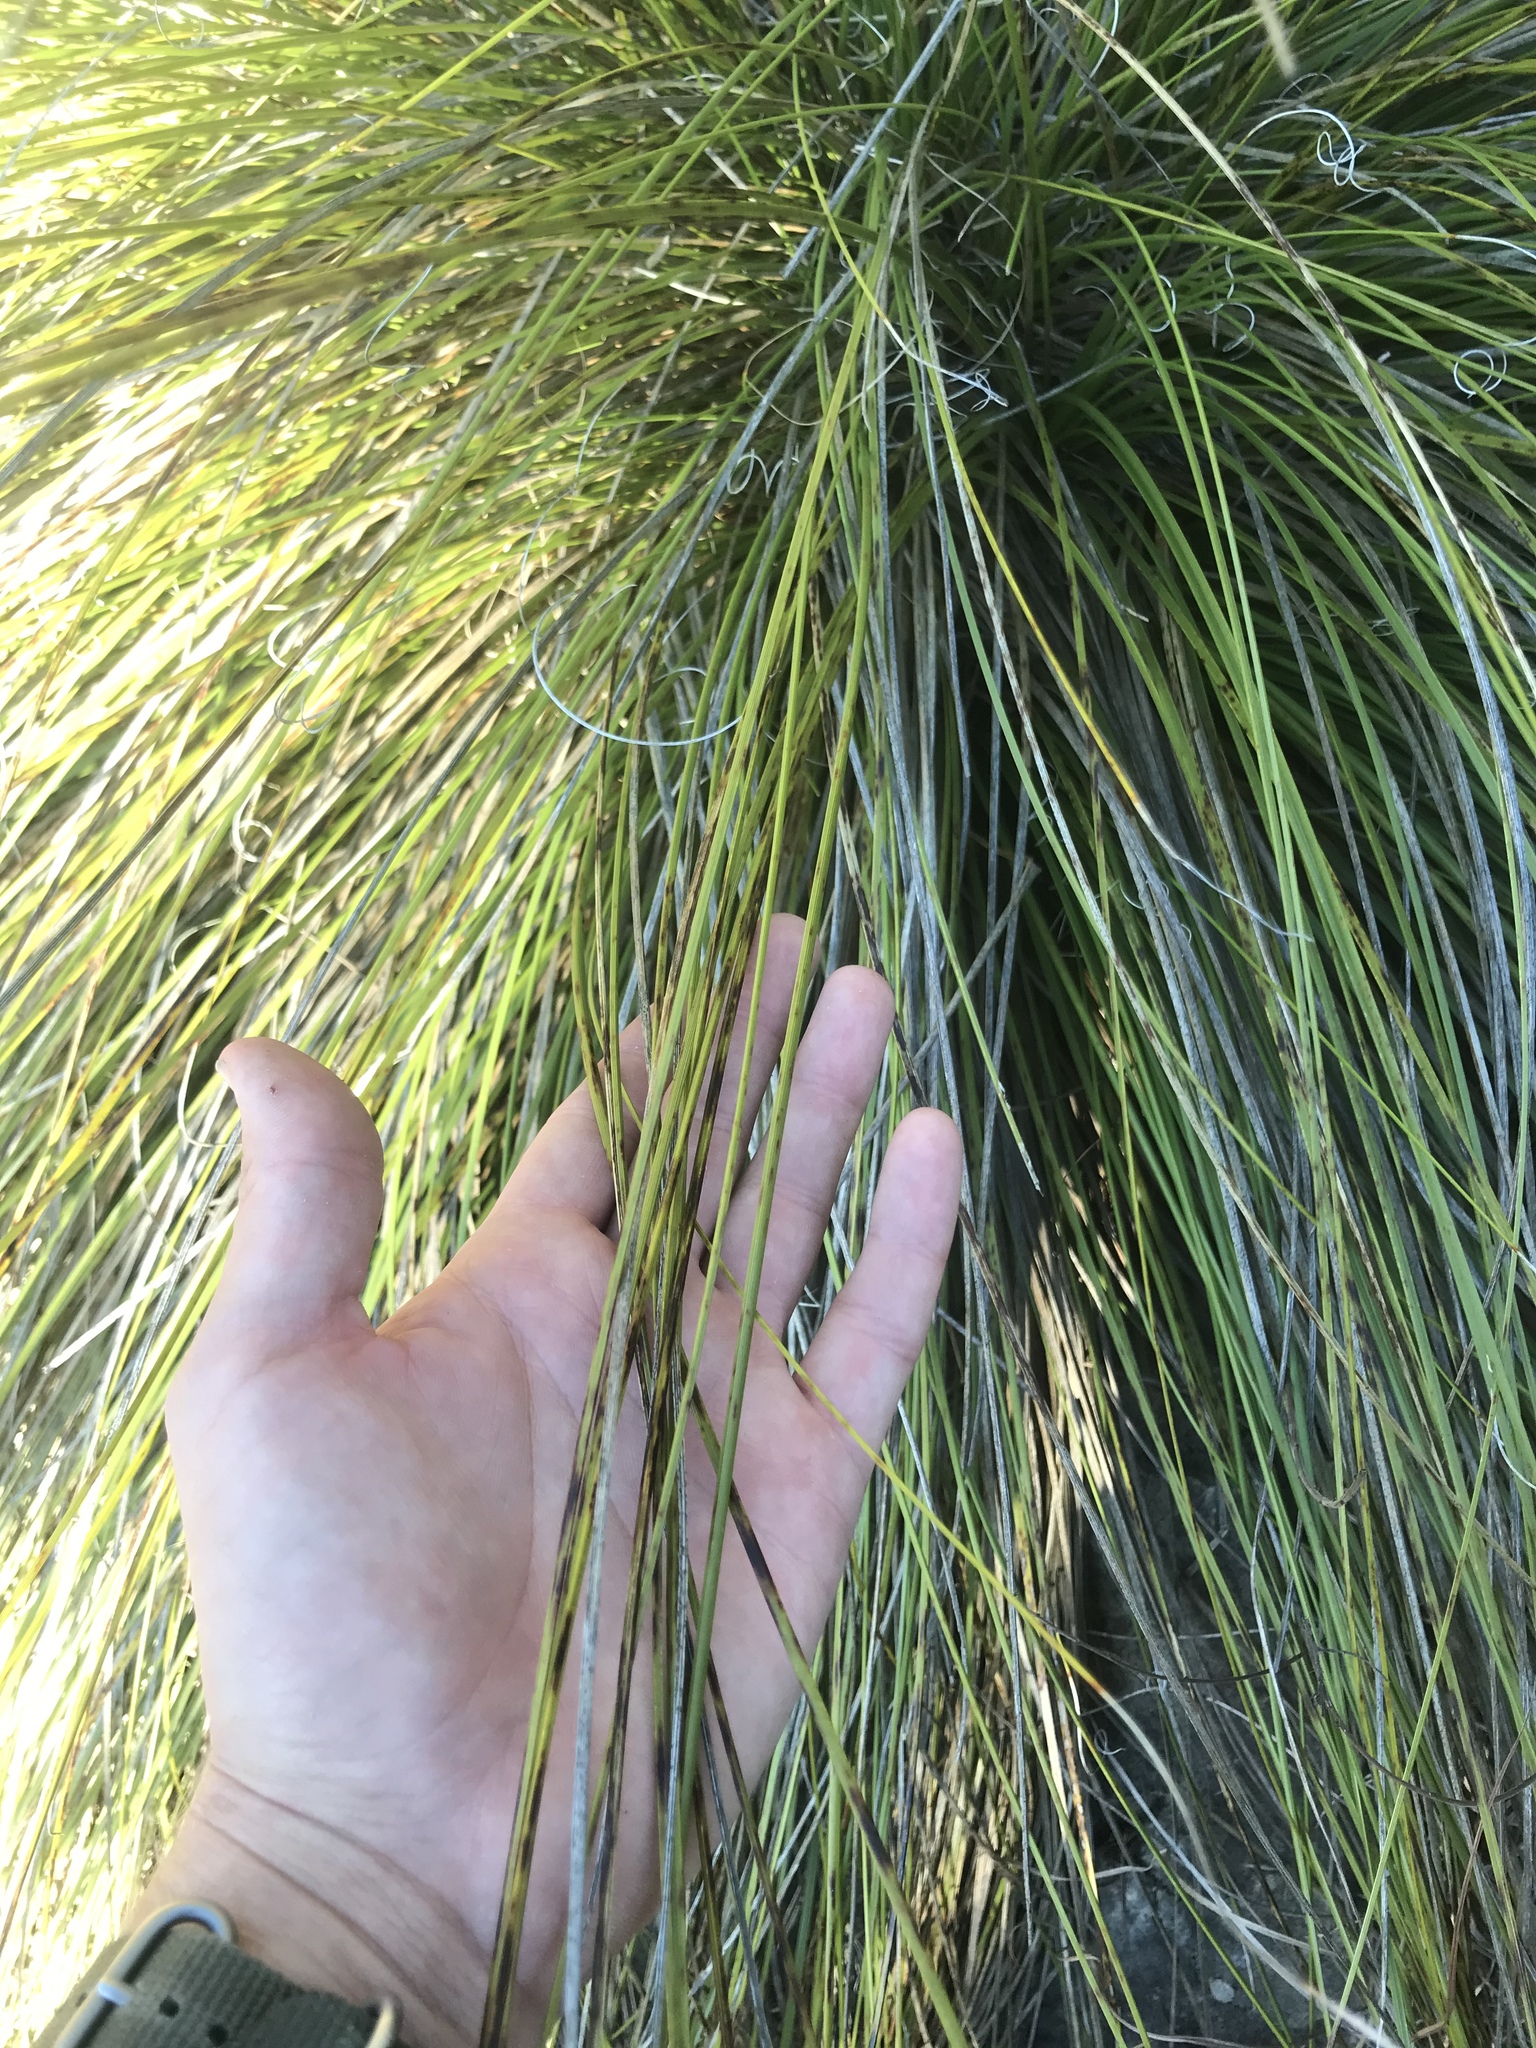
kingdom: Plantae
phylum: Tracheophyta
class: Liliopsida
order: Asparagales
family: Asparagaceae
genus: Nolina
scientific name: Nolina texana
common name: Texas sacahuiste
